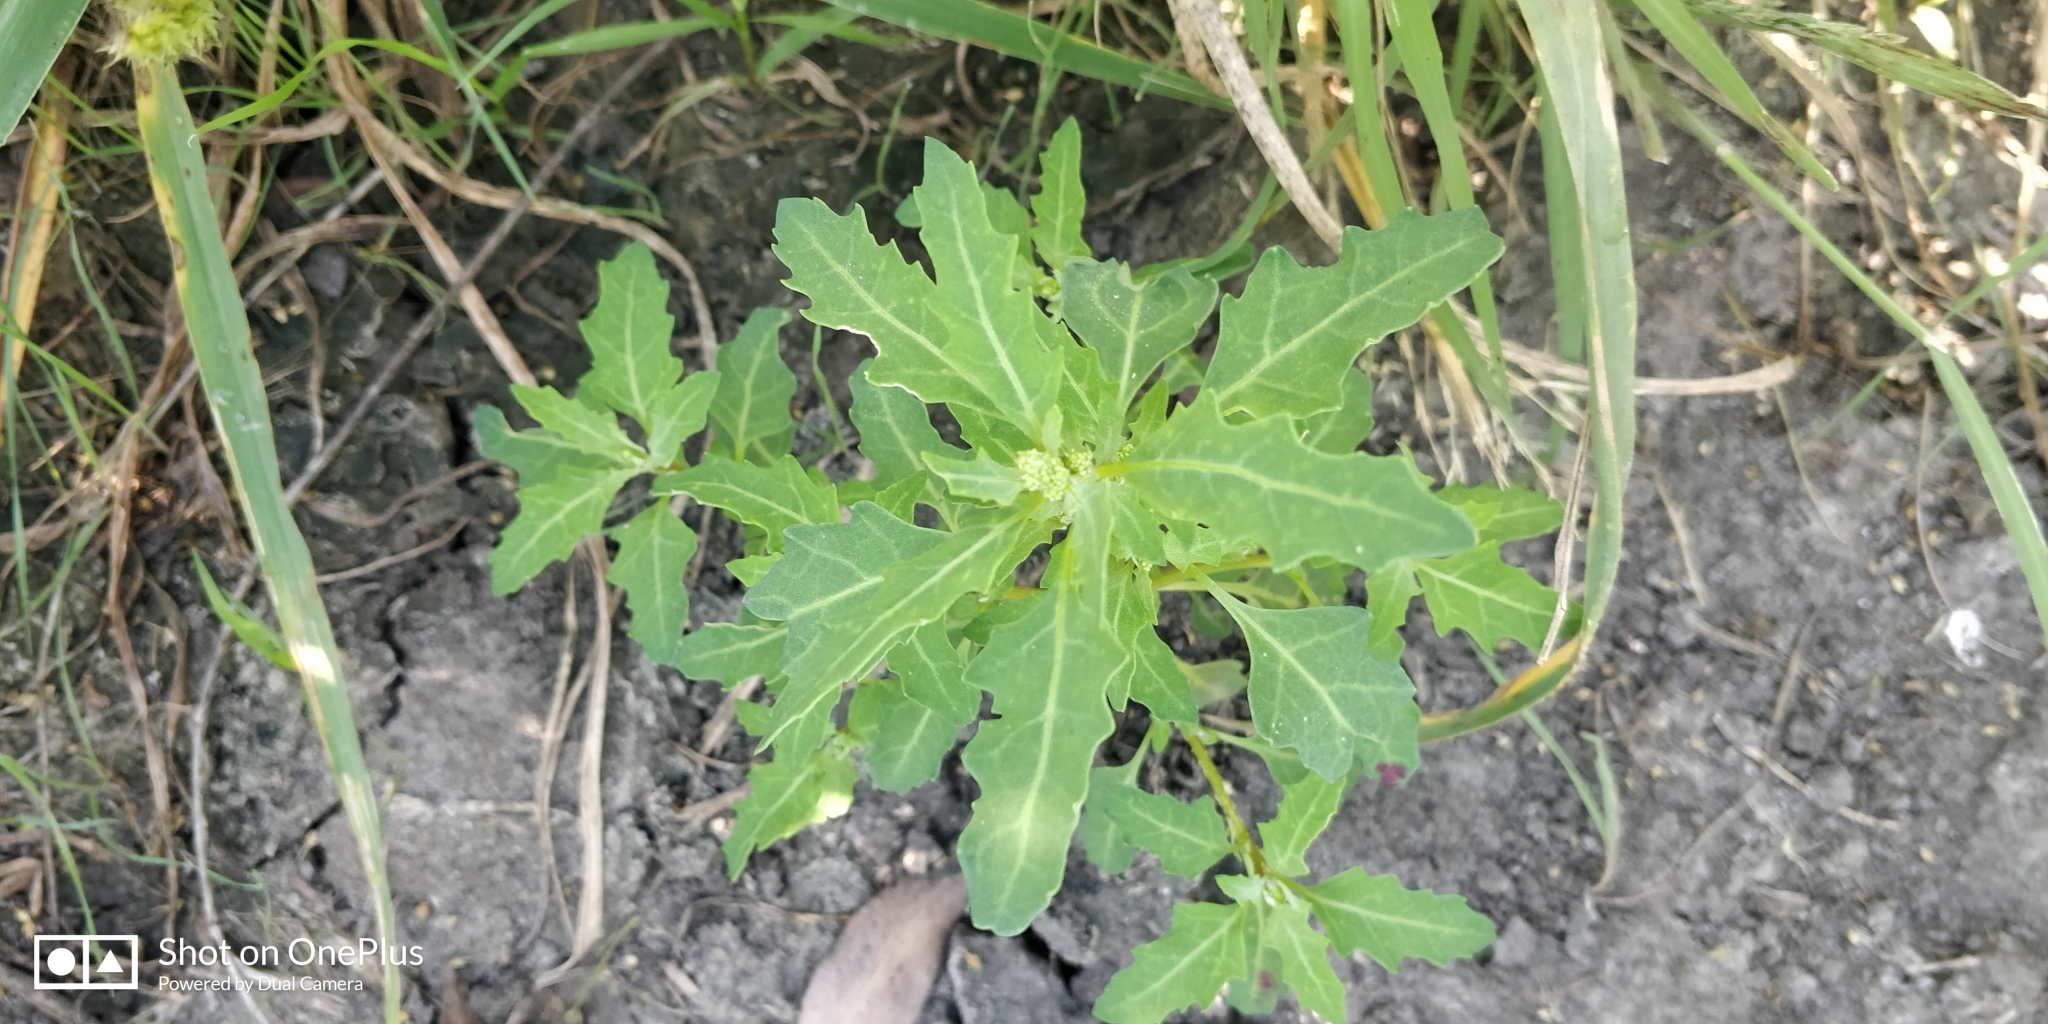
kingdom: Plantae
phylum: Tracheophyta
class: Magnoliopsida
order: Caryophyllales
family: Amaranthaceae
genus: Oxybasis
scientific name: Oxybasis glauca
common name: Glaucous goosefoot
